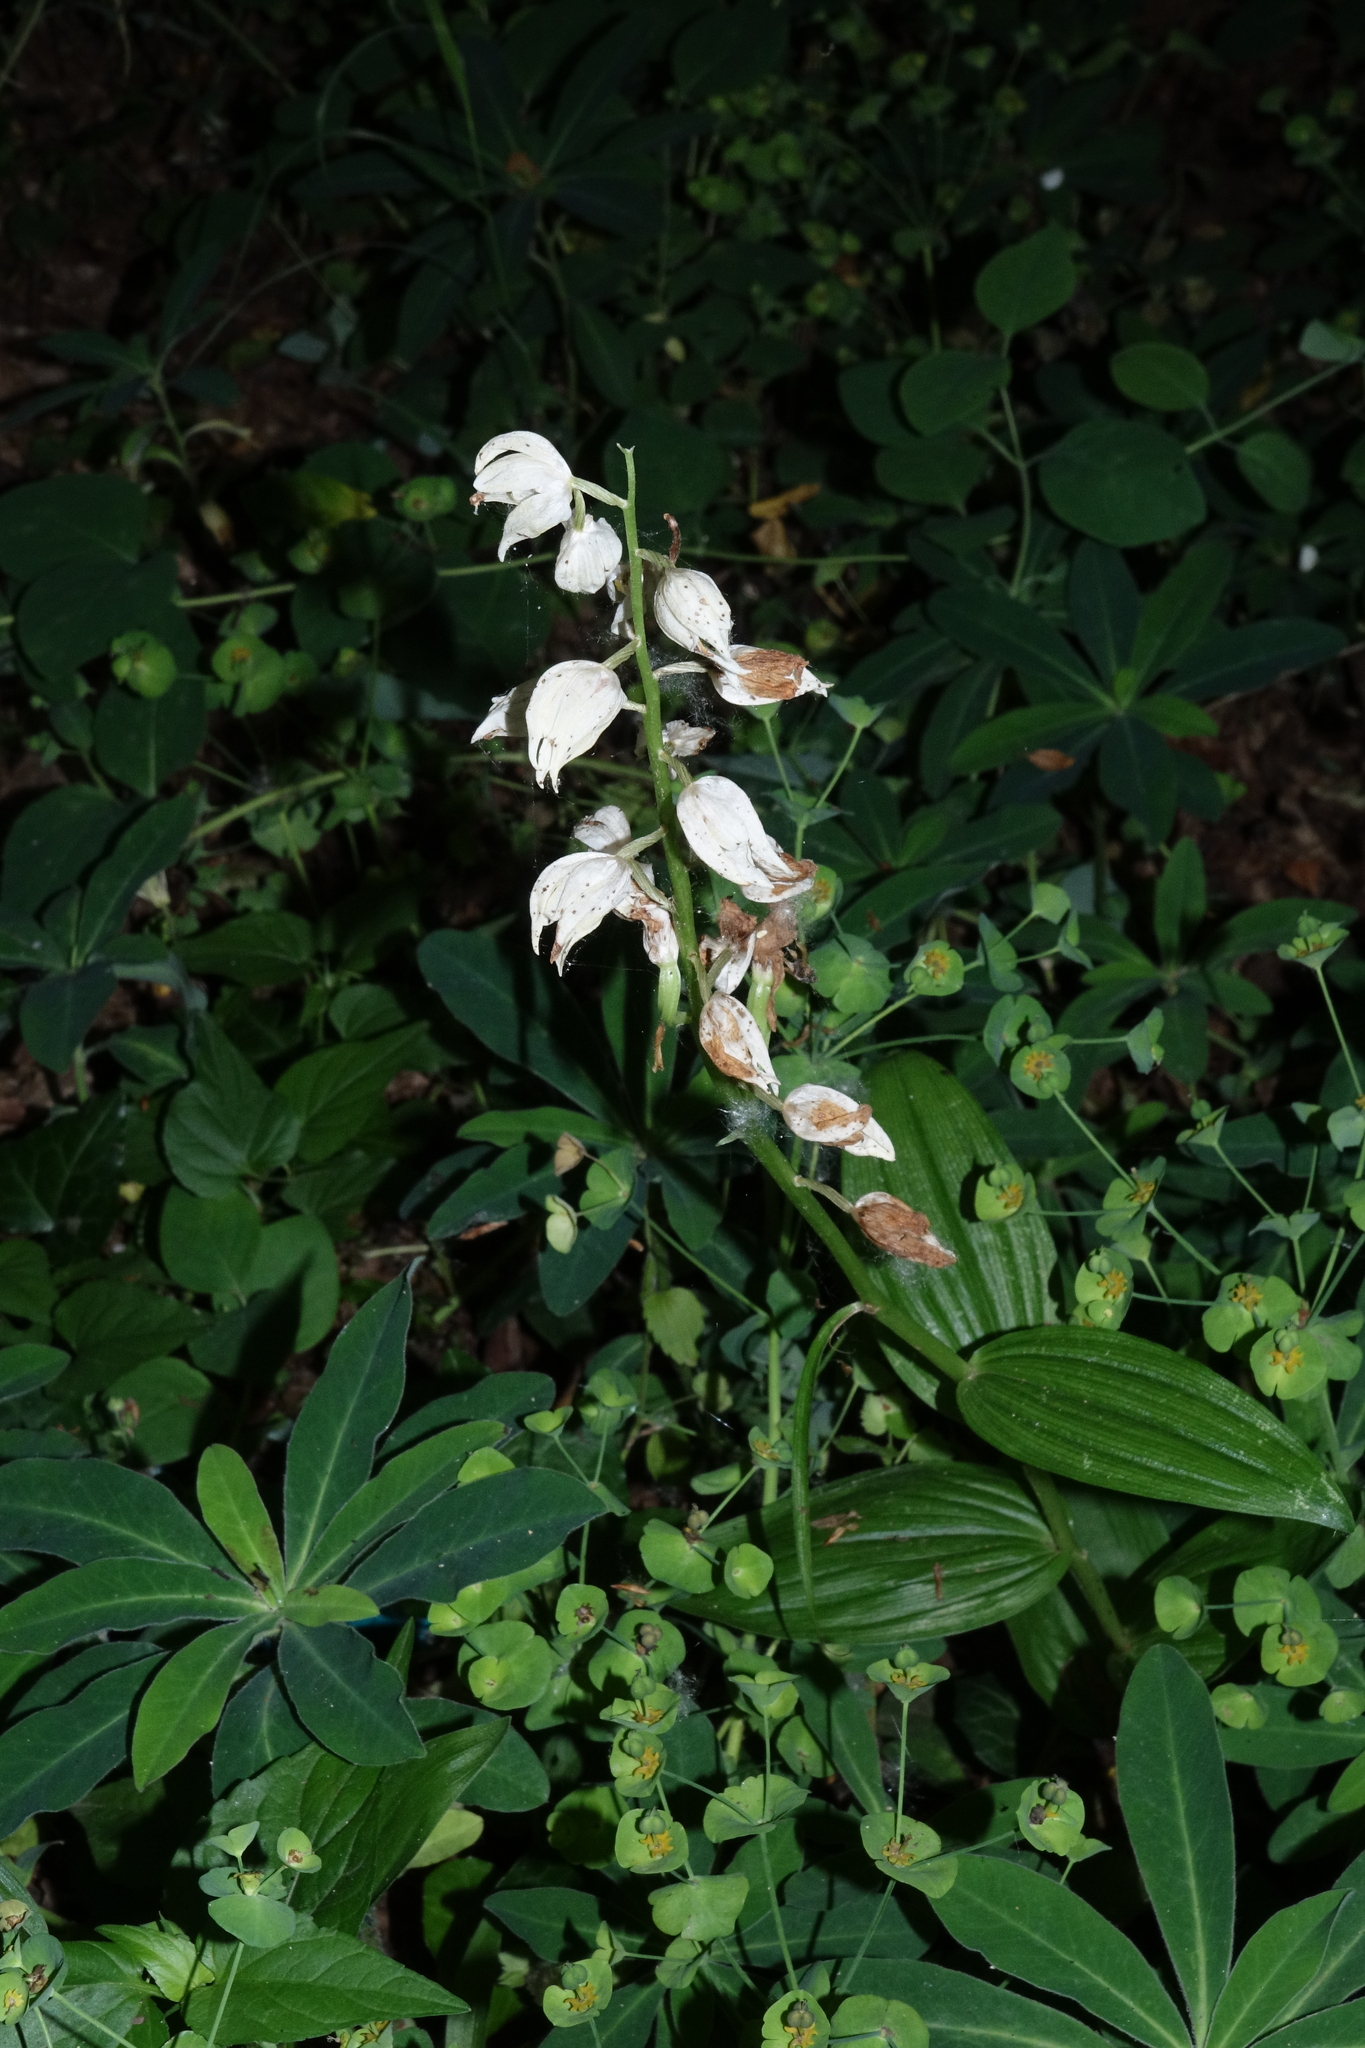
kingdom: Plantae
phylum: Tracheophyta
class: Liliopsida
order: Asparagales
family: Orchidaceae
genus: Cephalanthera
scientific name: Cephalanthera longifolia
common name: Narrow-leaved helleborine
